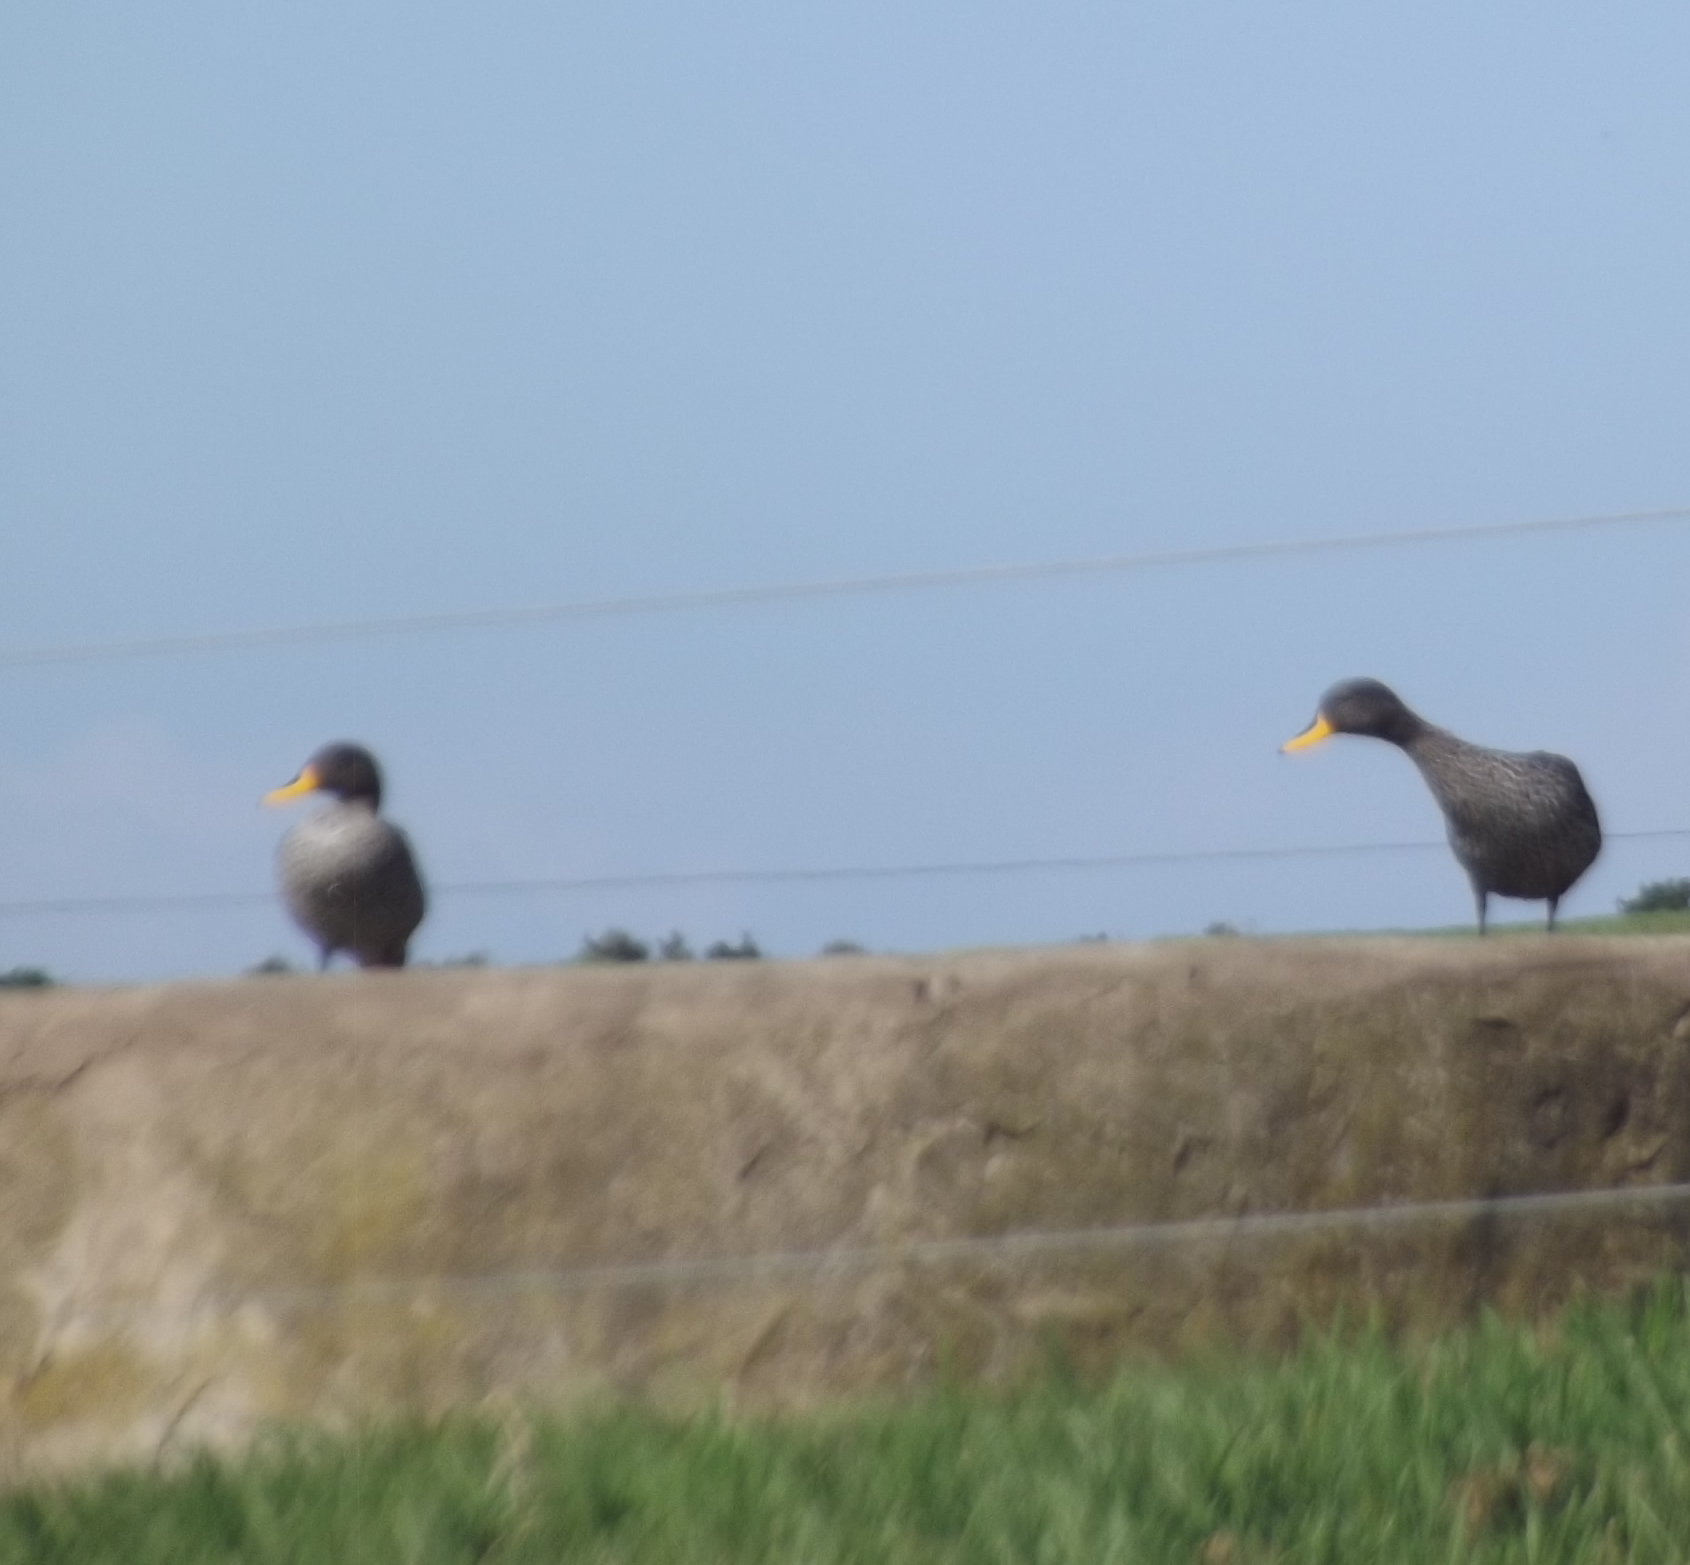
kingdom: Animalia
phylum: Chordata
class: Aves
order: Anseriformes
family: Anatidae
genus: Anas
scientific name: Anas undulata
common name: Yellow-billed duck
